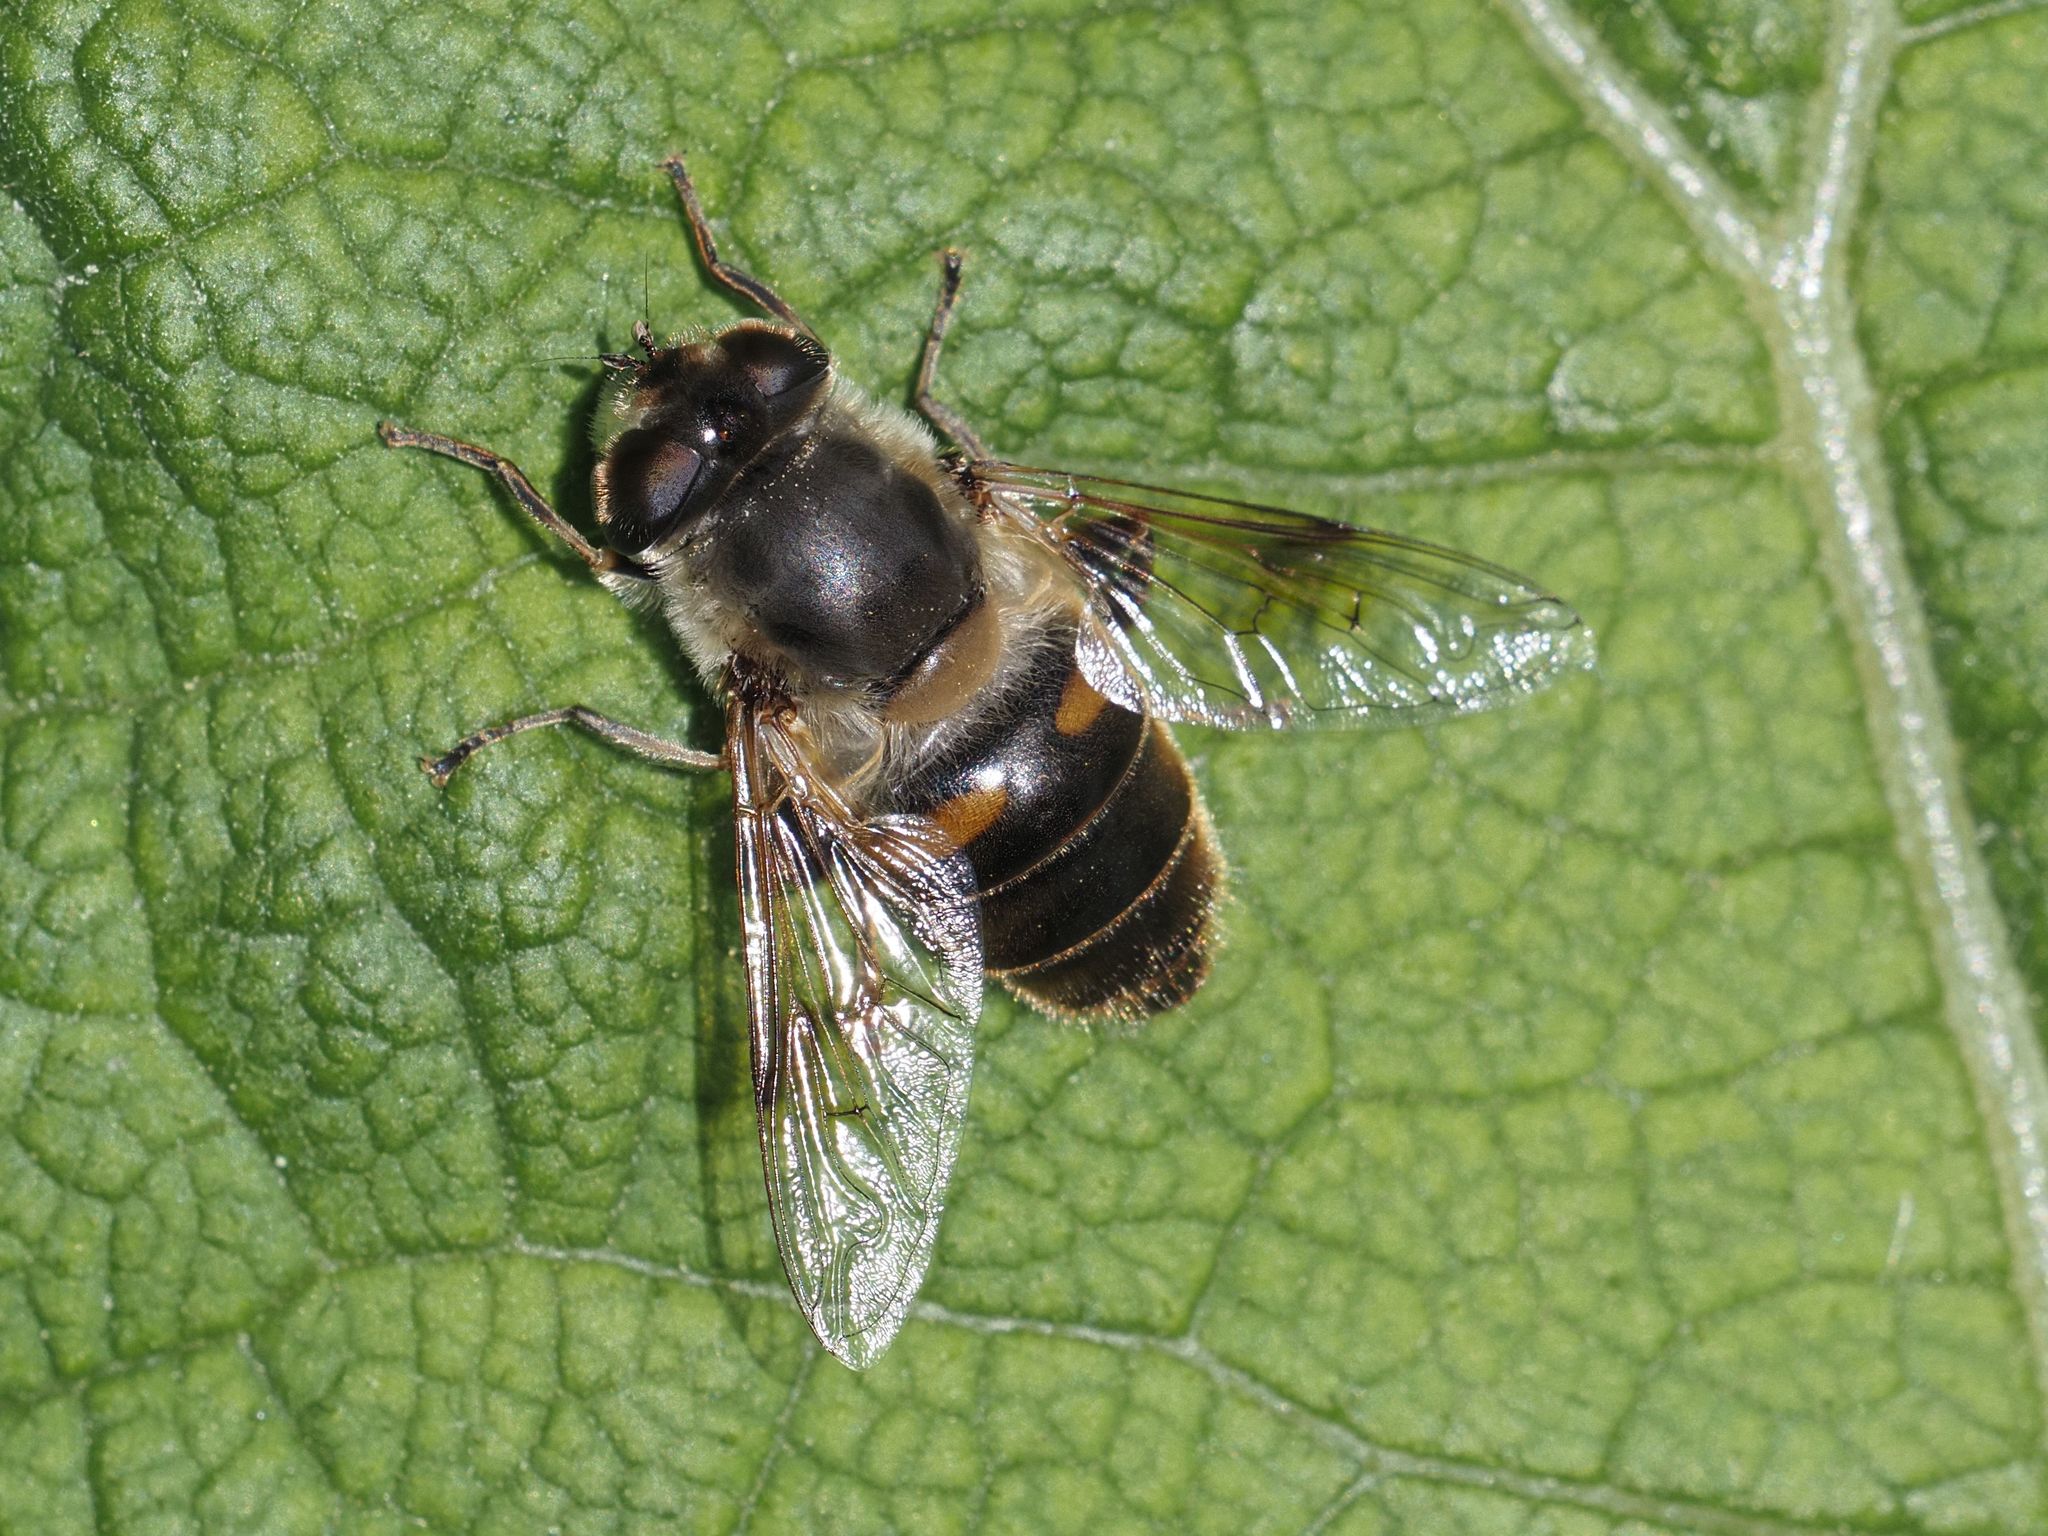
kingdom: Animalia
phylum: Arthropoda
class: Insecta
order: Diptera
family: Syrphidae
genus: Eristalis
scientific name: Eristalis tenax
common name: Drone fly
